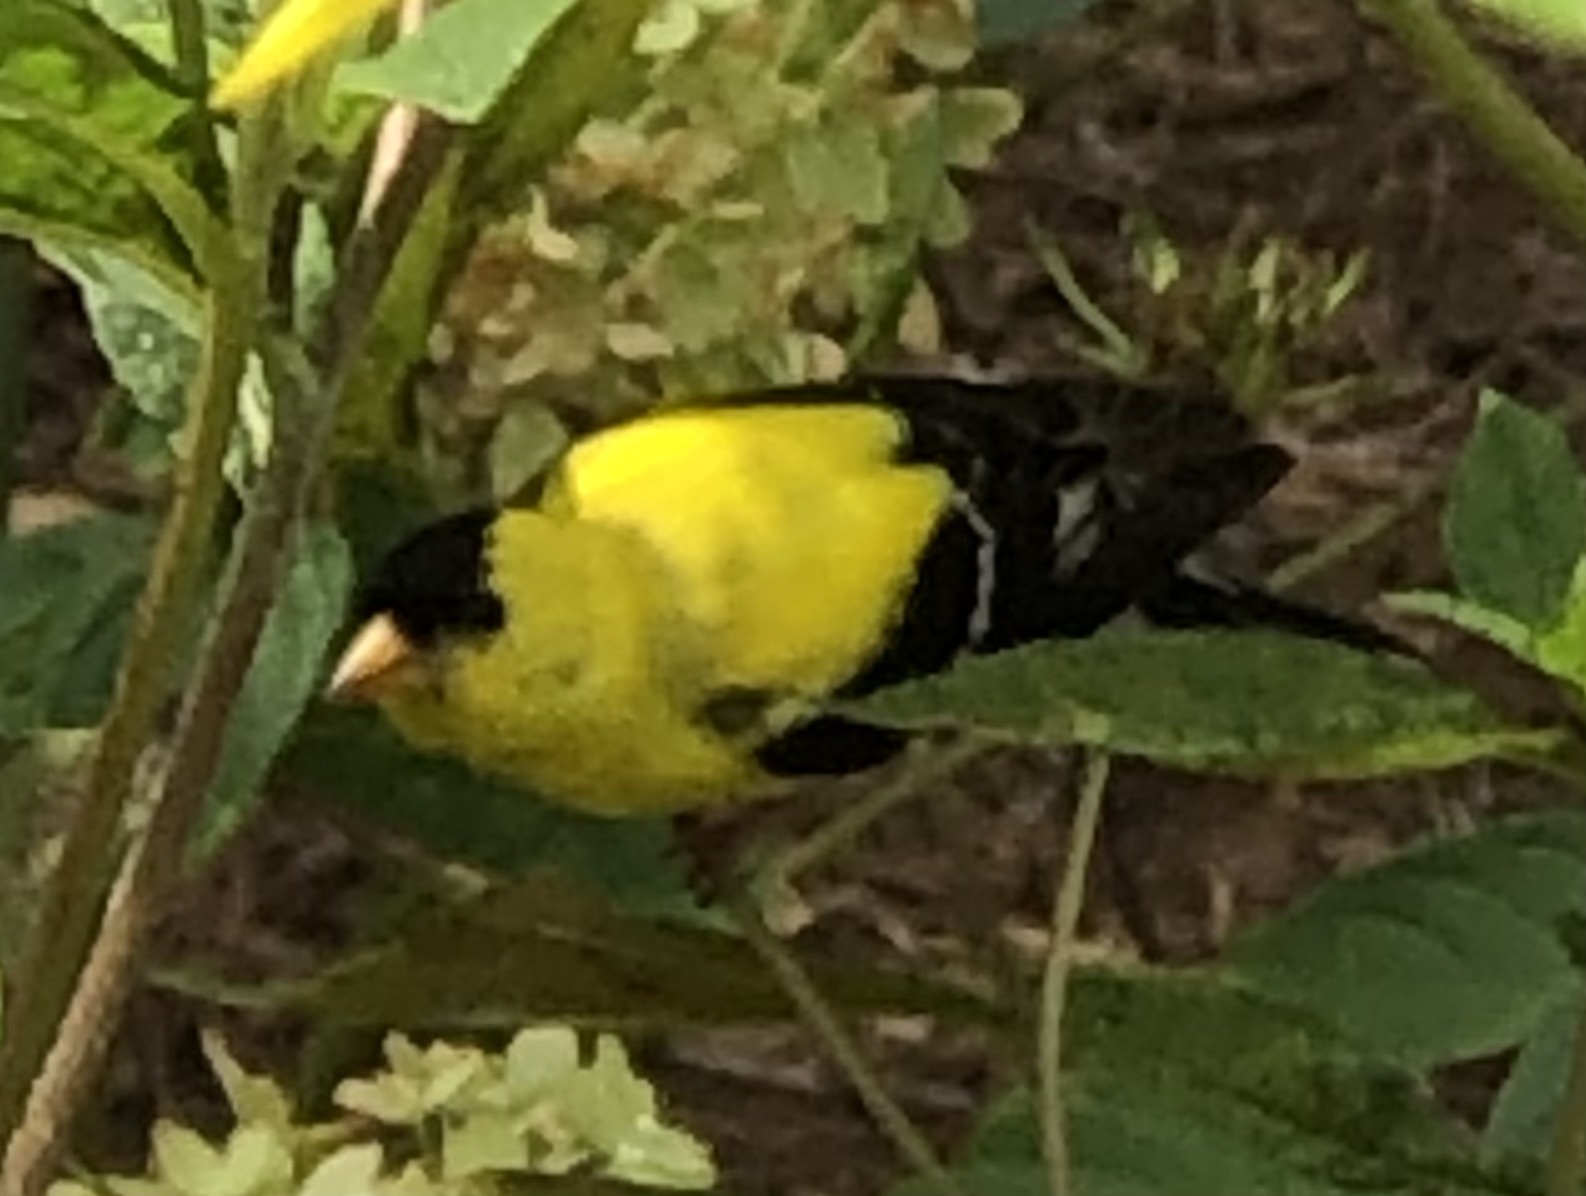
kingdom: Animalia
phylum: Chordata
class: Aves
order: Passeriformes
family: Fringillidae
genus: Spinus
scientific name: Spinus tristis
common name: American goldfinch
